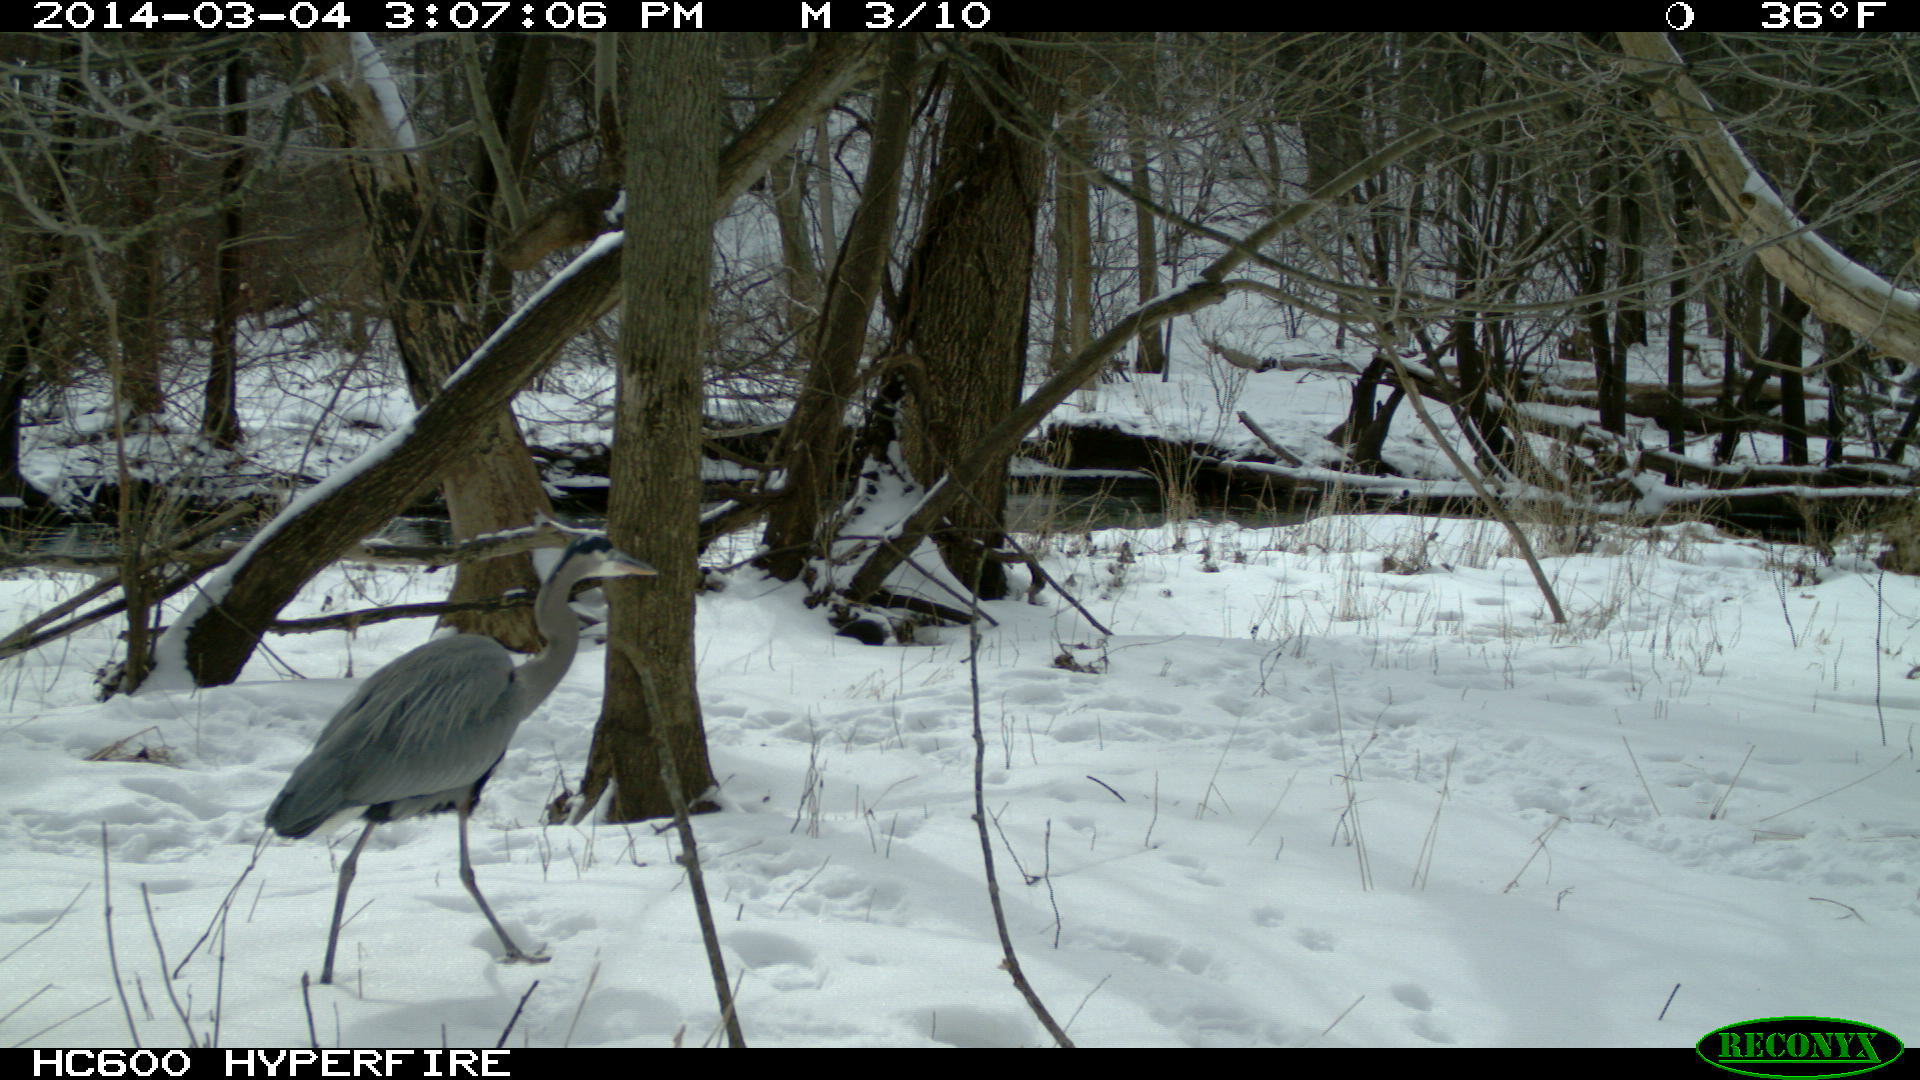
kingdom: Animalia
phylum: Chordata
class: Aves
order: Pelecaniformes
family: Ardeidae
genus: Ardea
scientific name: Ardea herodias
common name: Great blue heron
